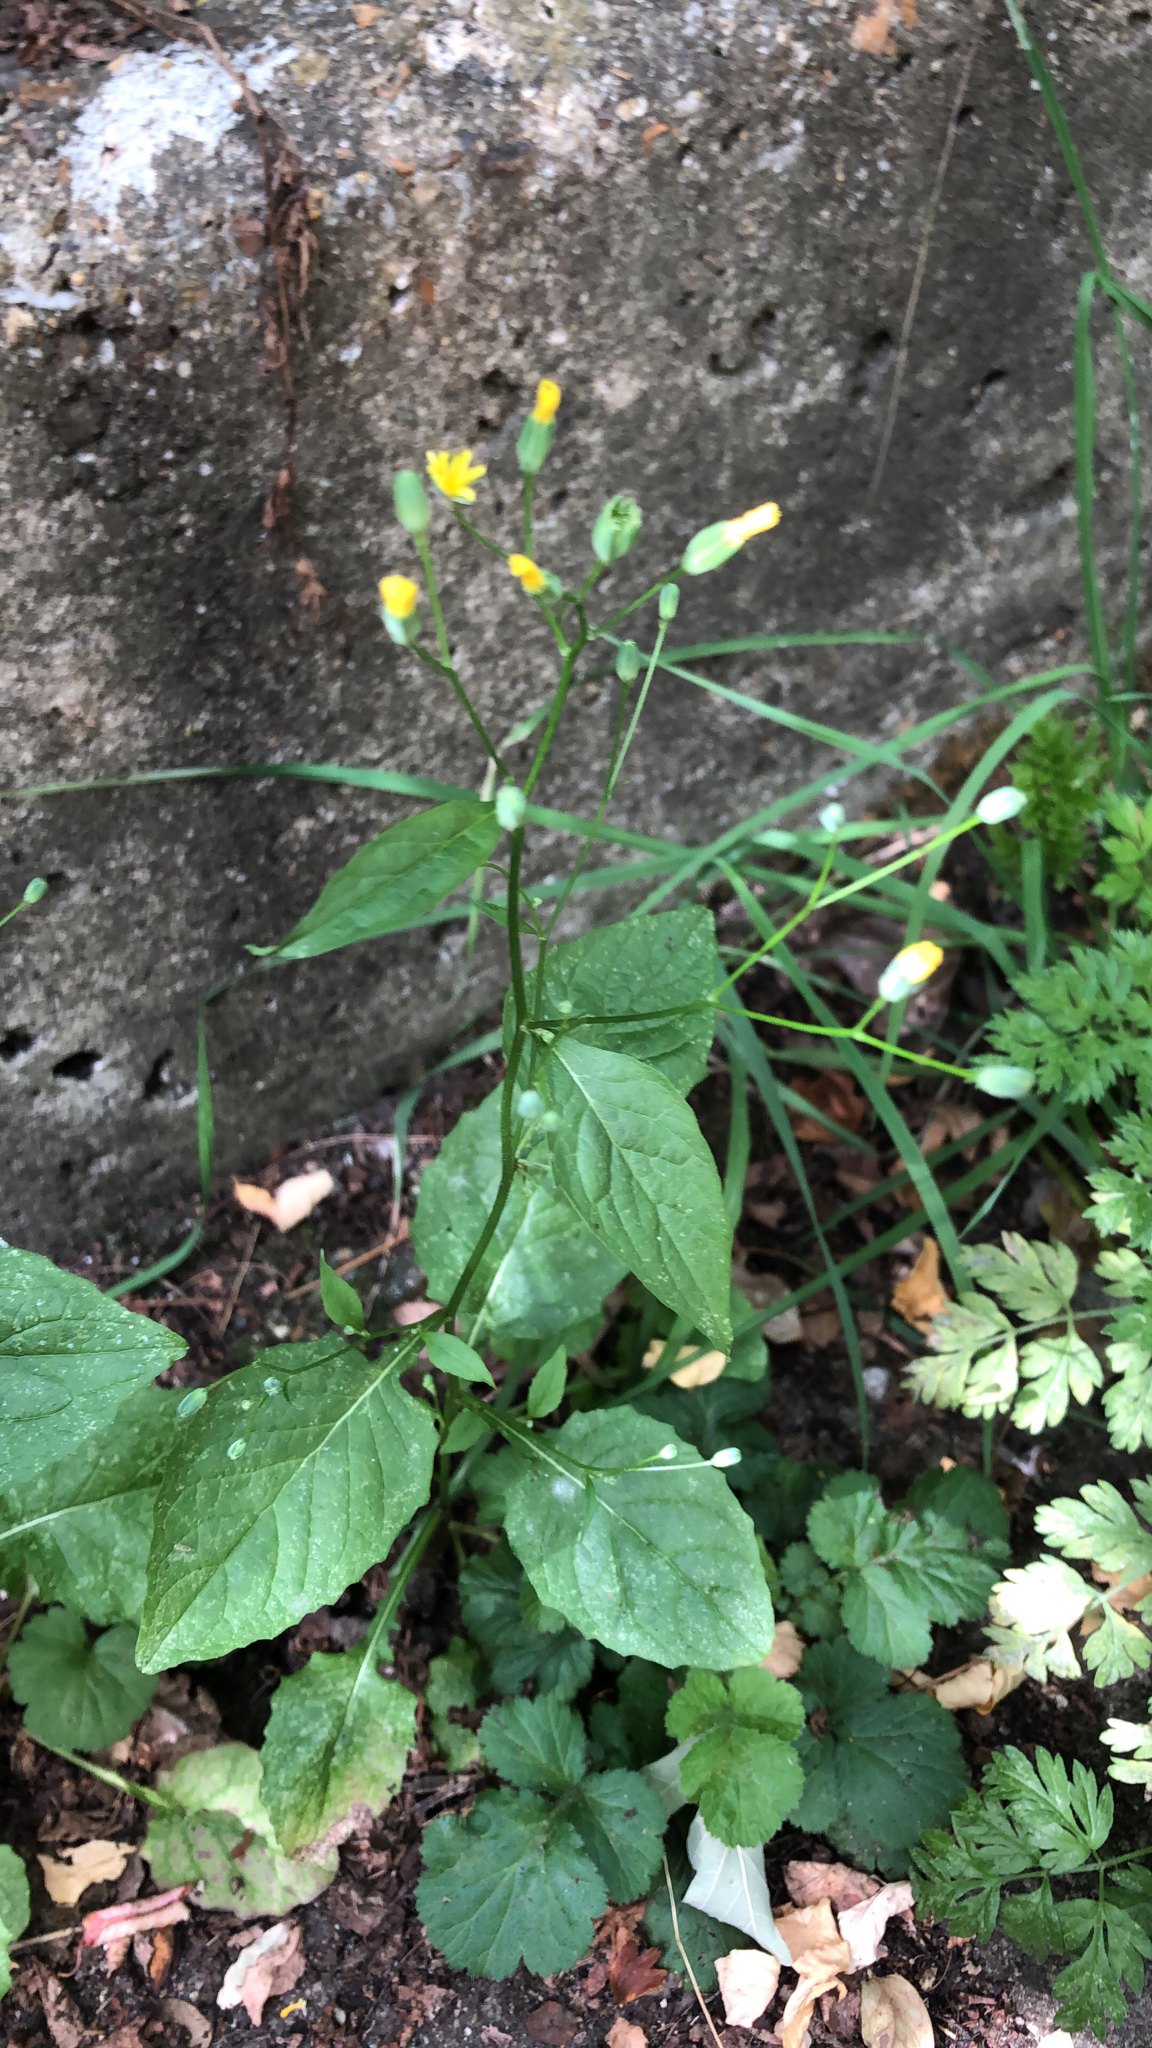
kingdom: Plantae
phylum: Tracheophyta
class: Magnoliopsida
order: Asterales
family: Asteraceae
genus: Lapsana
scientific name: Lapsana communis
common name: Nipplewort
